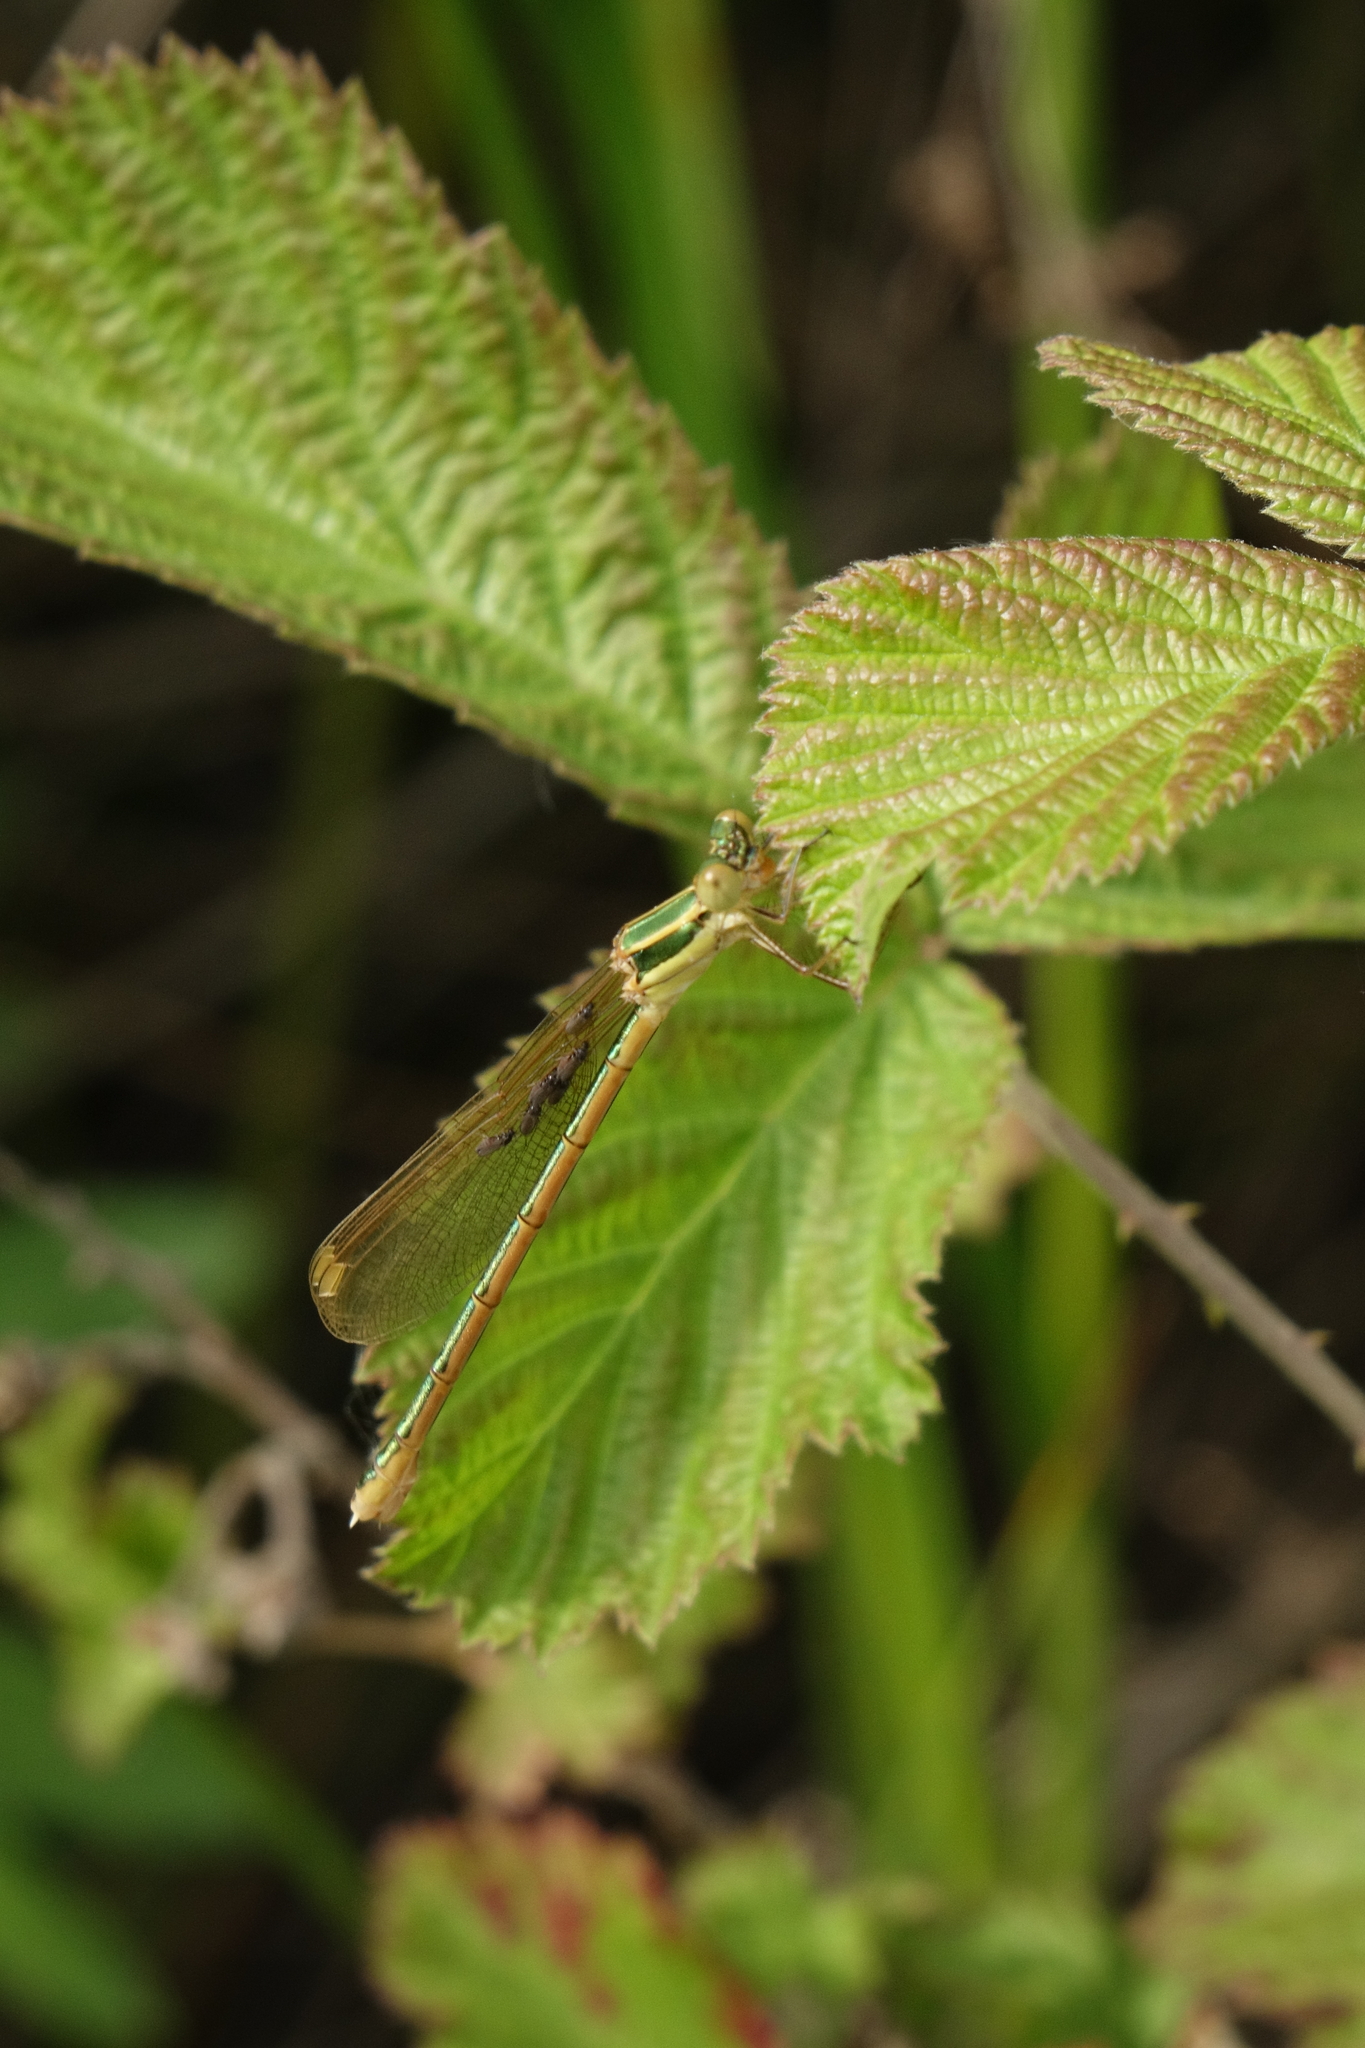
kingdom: Animalia
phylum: Arthropoda
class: Insecta
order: Odonata
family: Lestidae
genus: Lestes
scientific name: Lestes barbarus
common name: Migrant spreadwing
